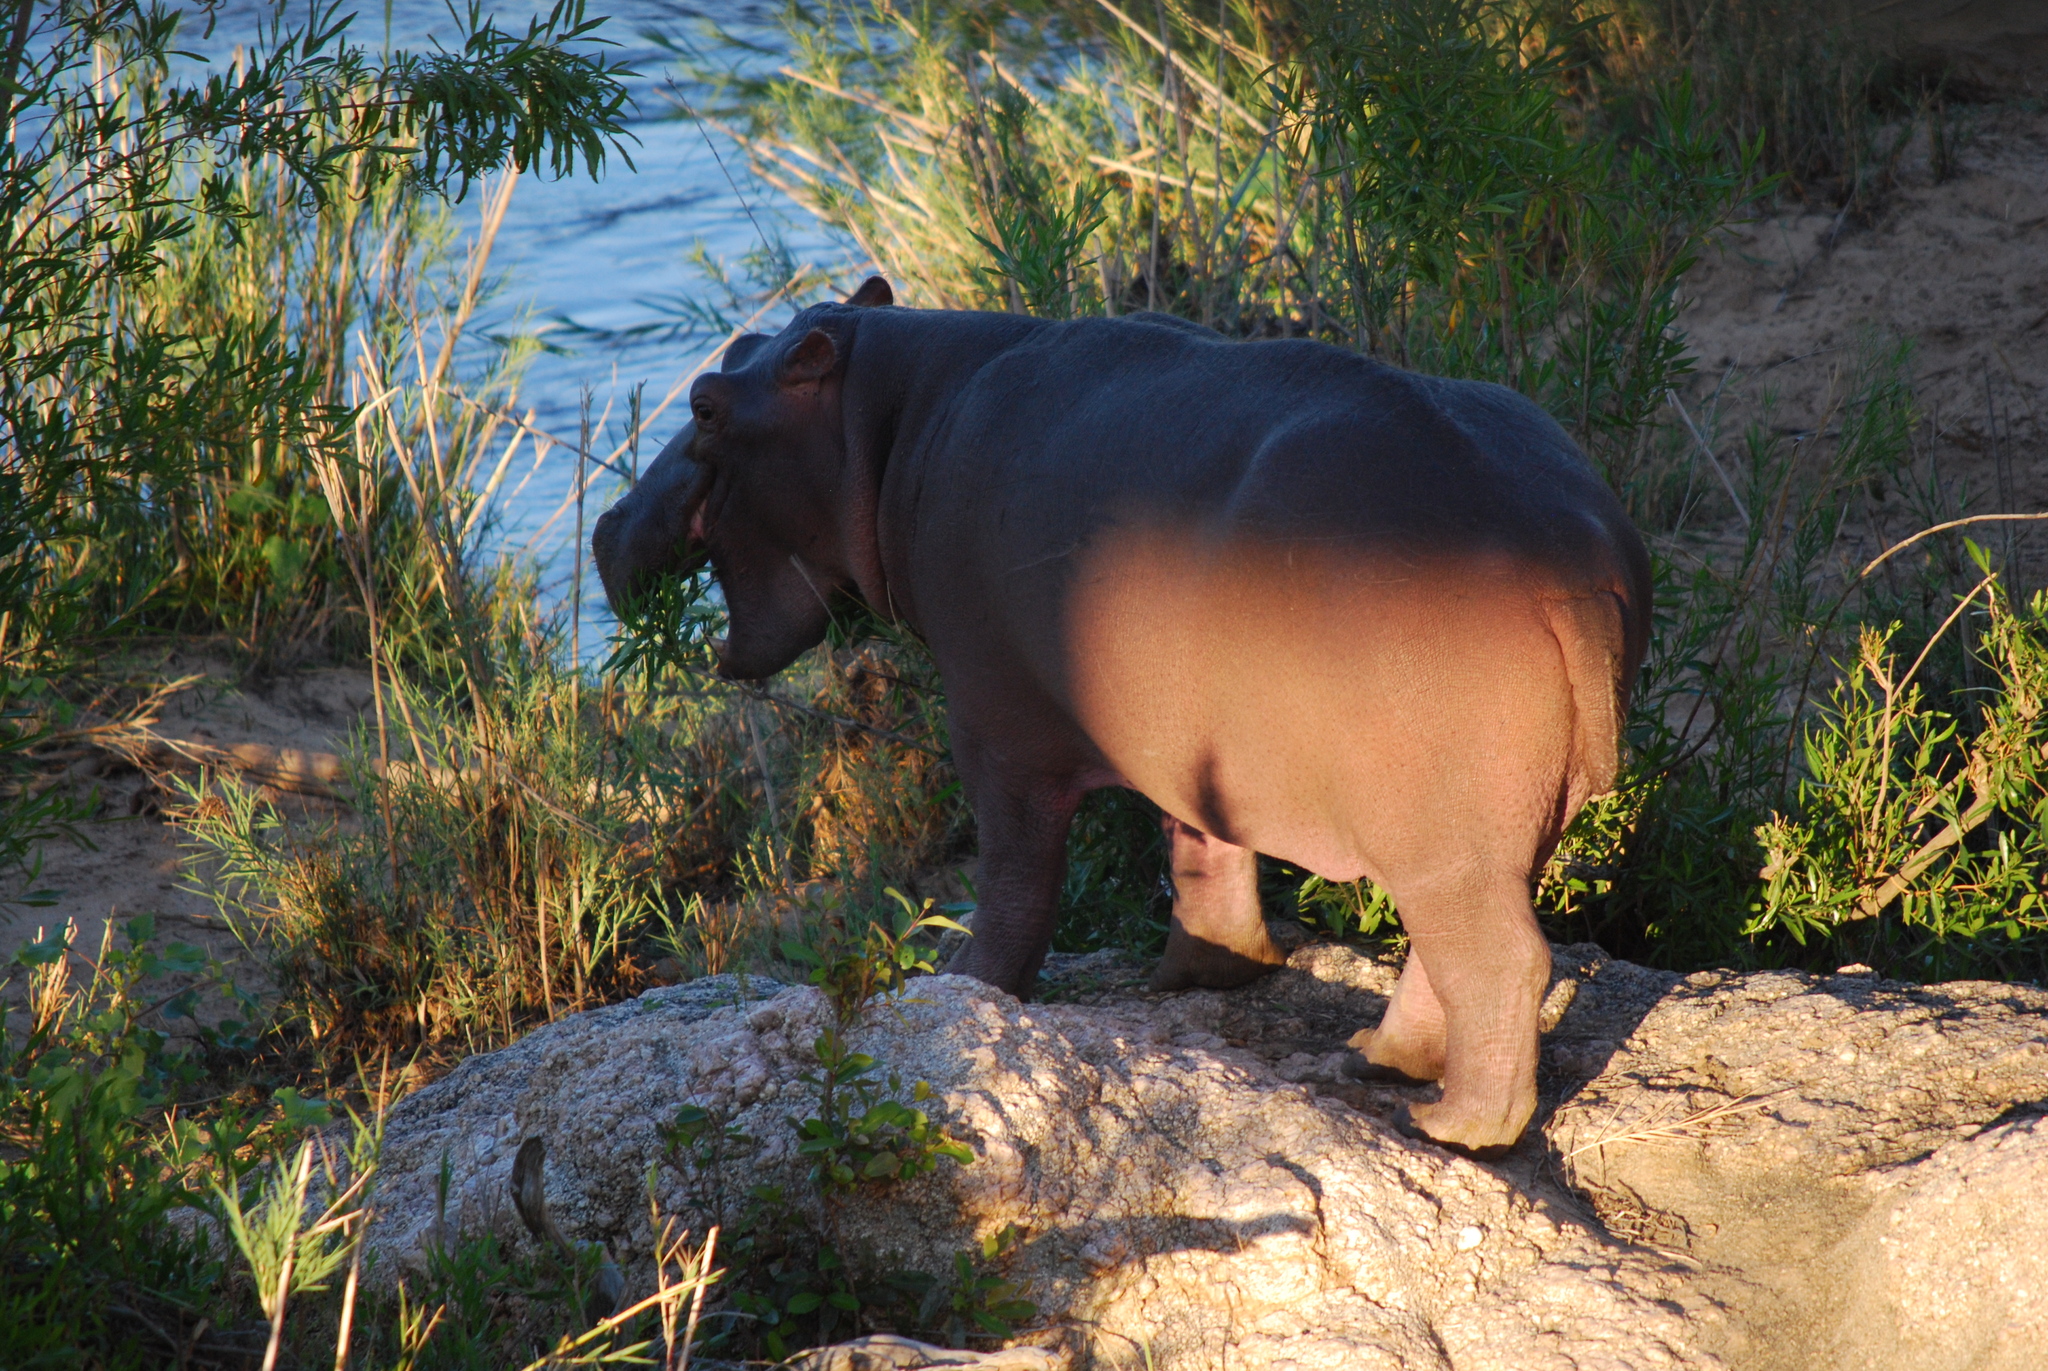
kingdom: Animalia
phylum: Chordata
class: Mammalia
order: Artiodactyla
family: Hippopotamidae
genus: Hippopotamus
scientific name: Hippopotamus amphibius
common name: Common hippopotamus
